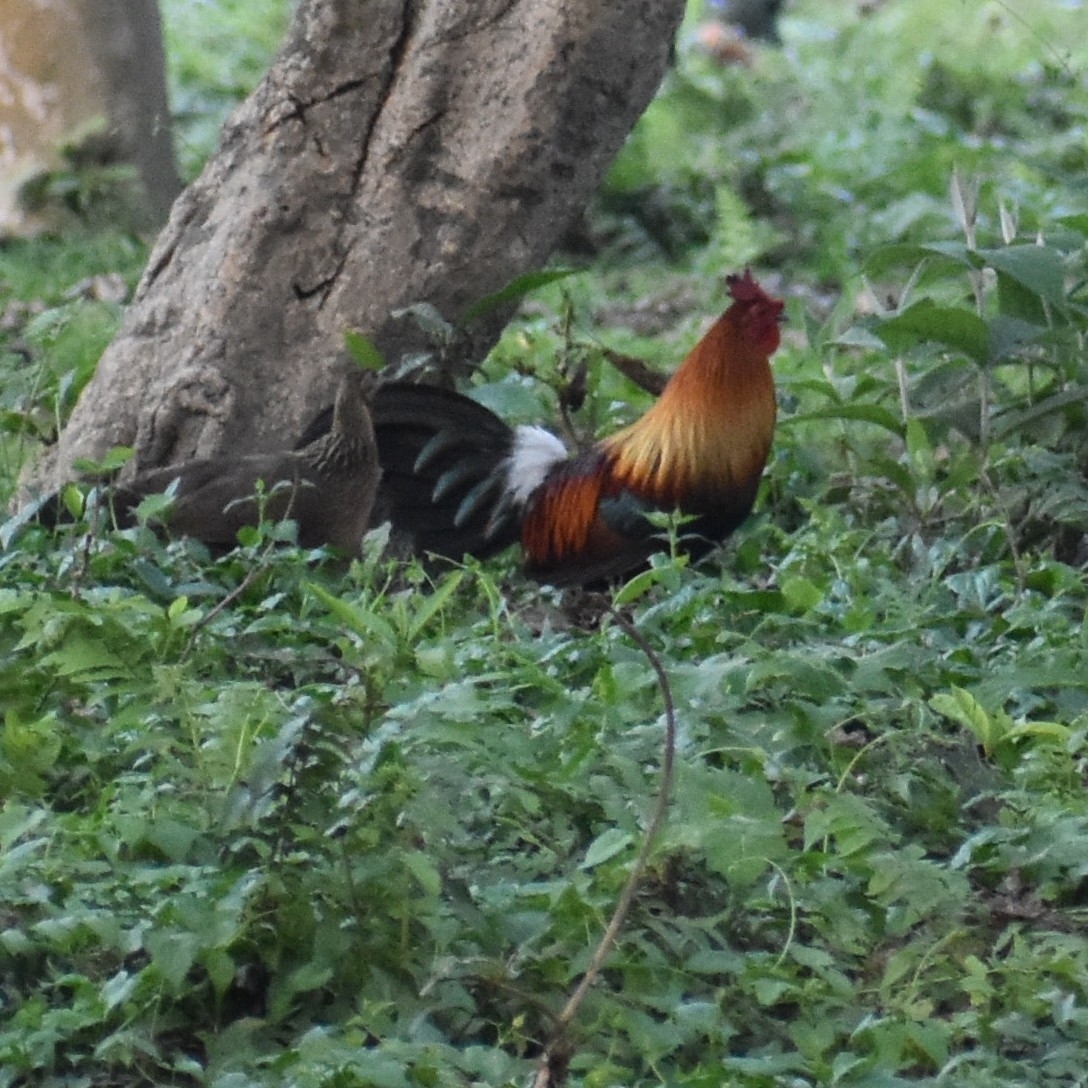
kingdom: Animalia
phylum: Chordata
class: Aves
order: Galliformes
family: Phasianidae
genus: Gallus
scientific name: Gallus gallus
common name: Red junglefowl
